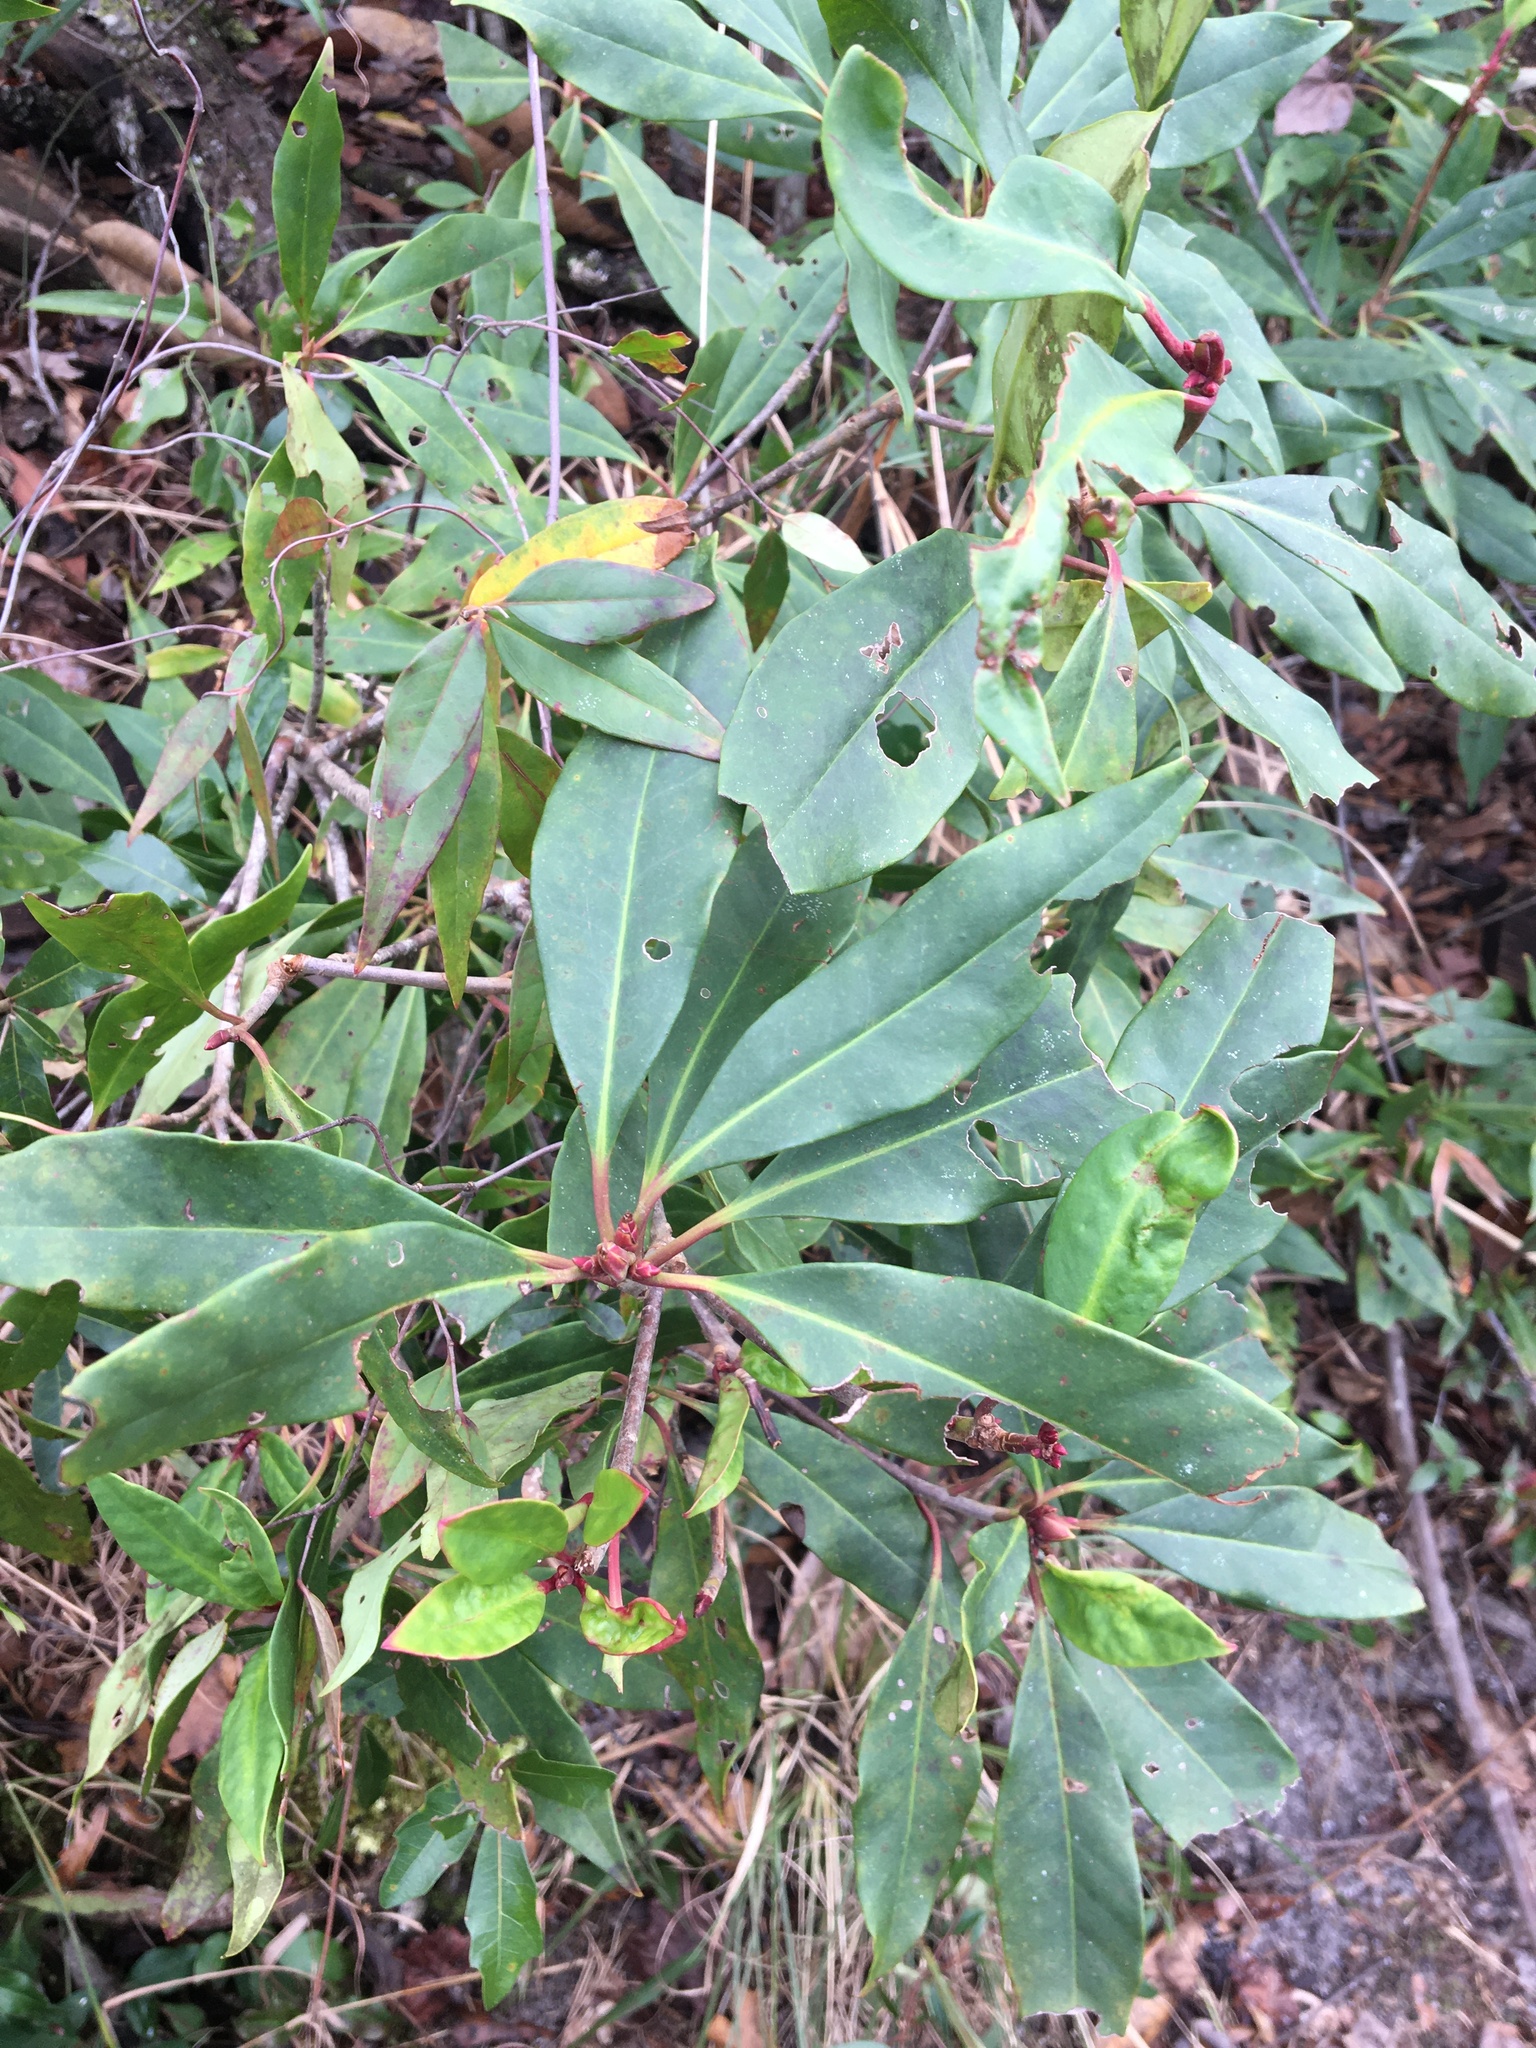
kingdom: Plantae
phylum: Tracheophyta
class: Magnoliopsida
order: Austrobaileyales
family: Schisandraceae
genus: Illicium
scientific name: Illicium floridanum
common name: Florida anisetree
